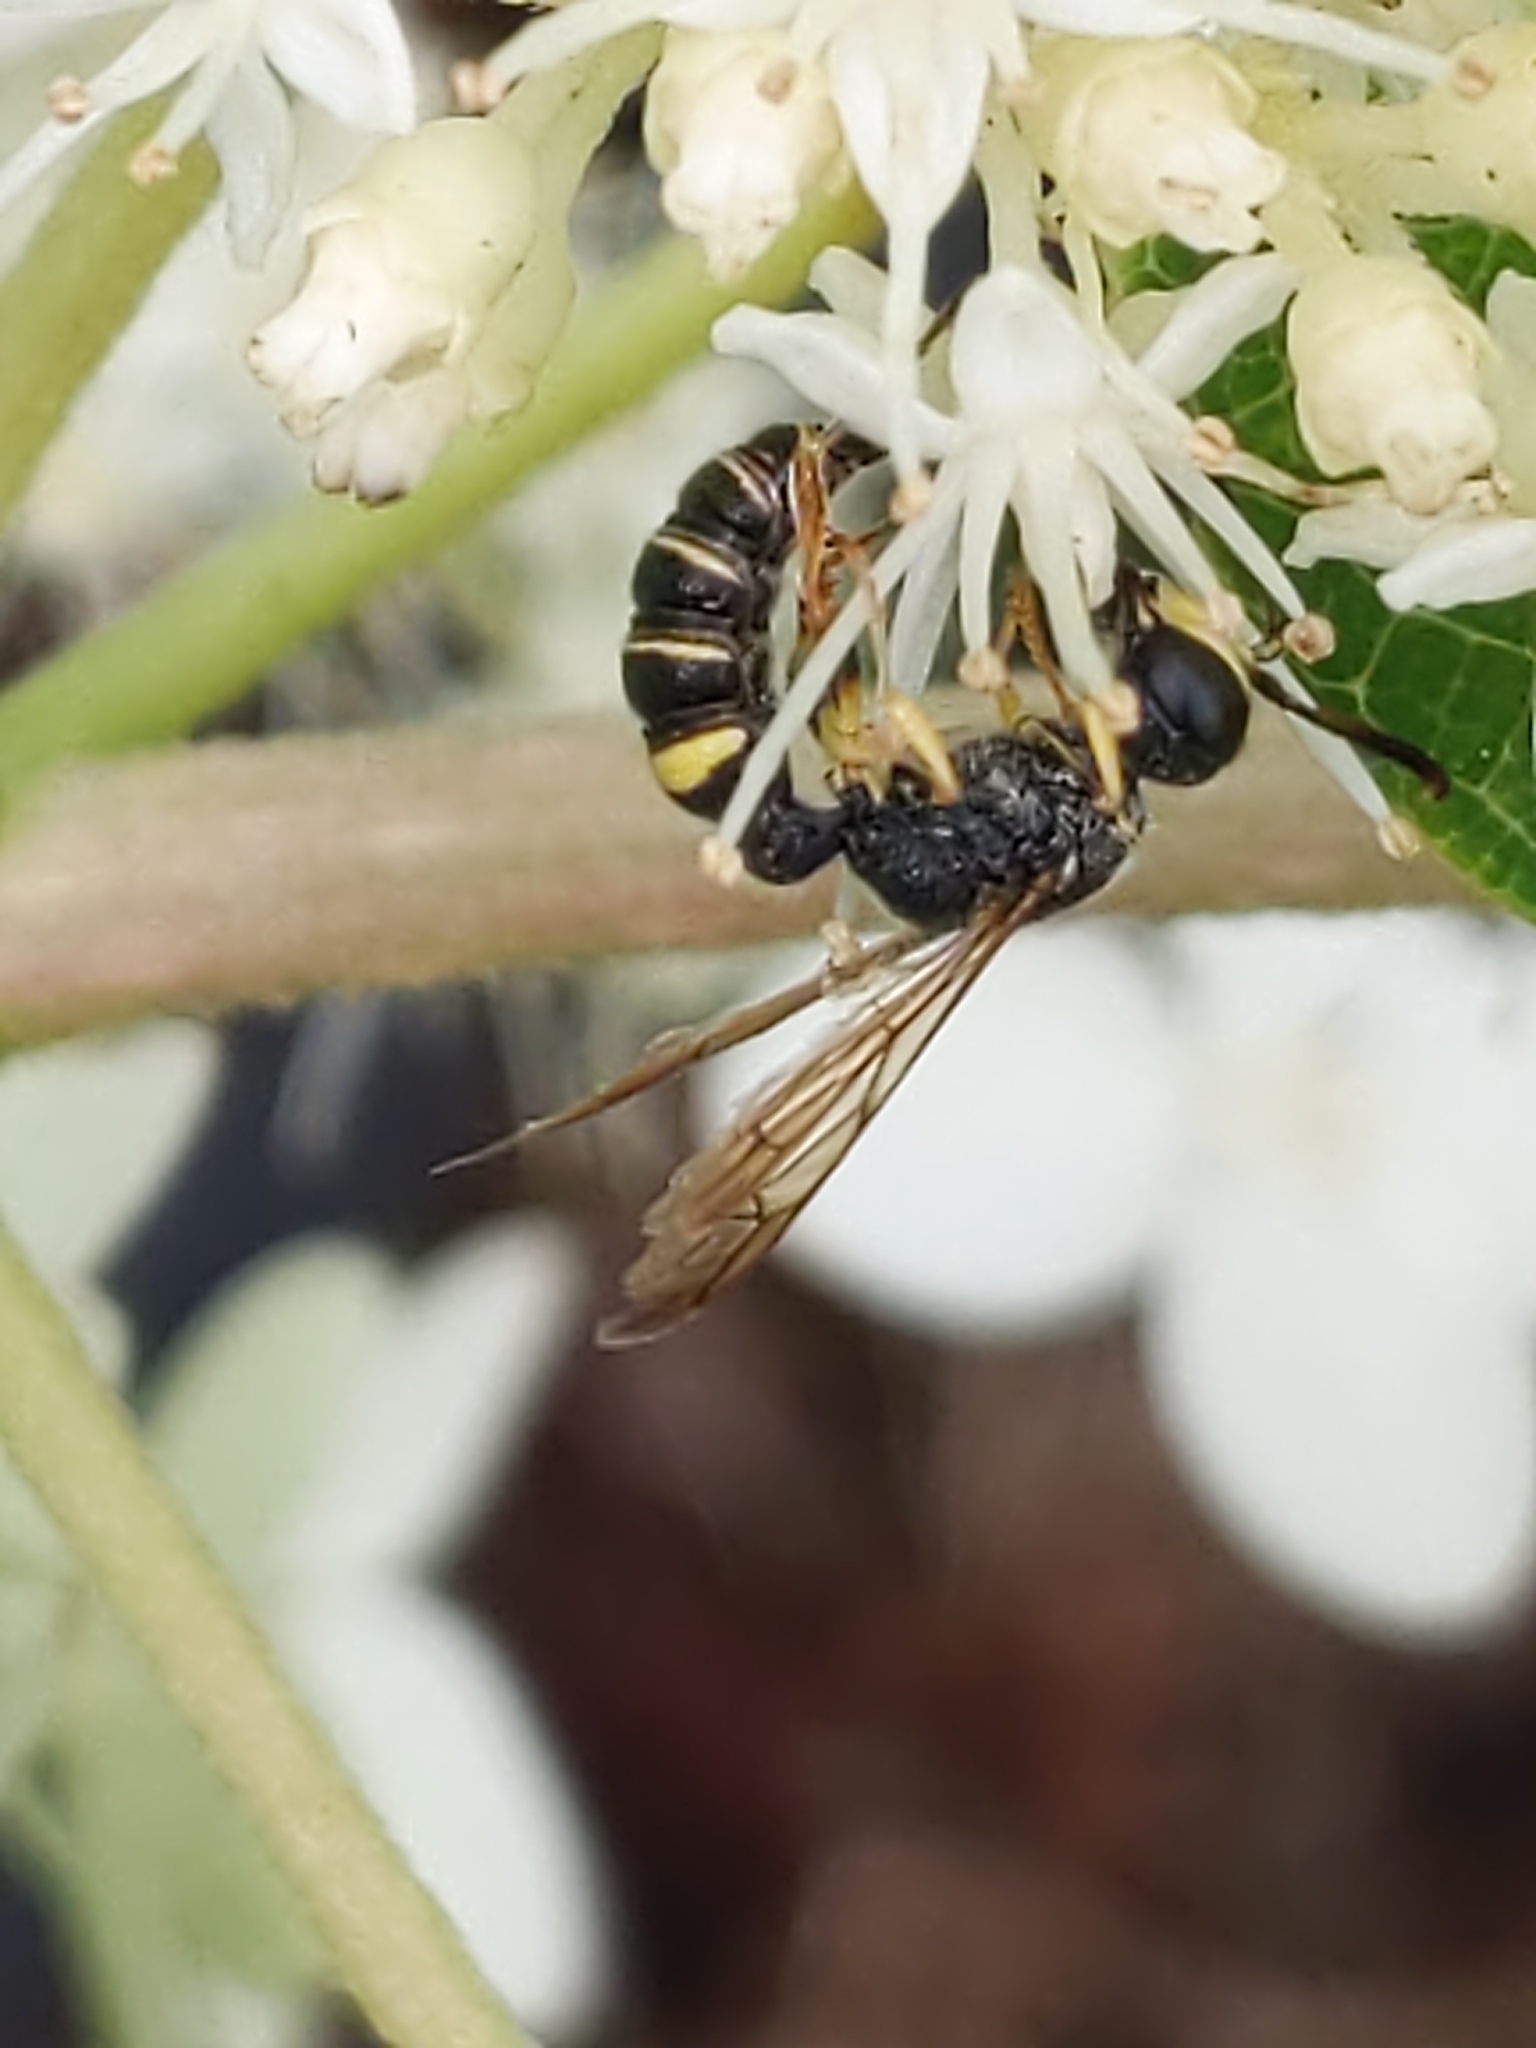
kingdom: Animalia
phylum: Arthropoda
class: Insecta
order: Hymenoptera
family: Crabronidae
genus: Cerceris
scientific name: Cerceris
